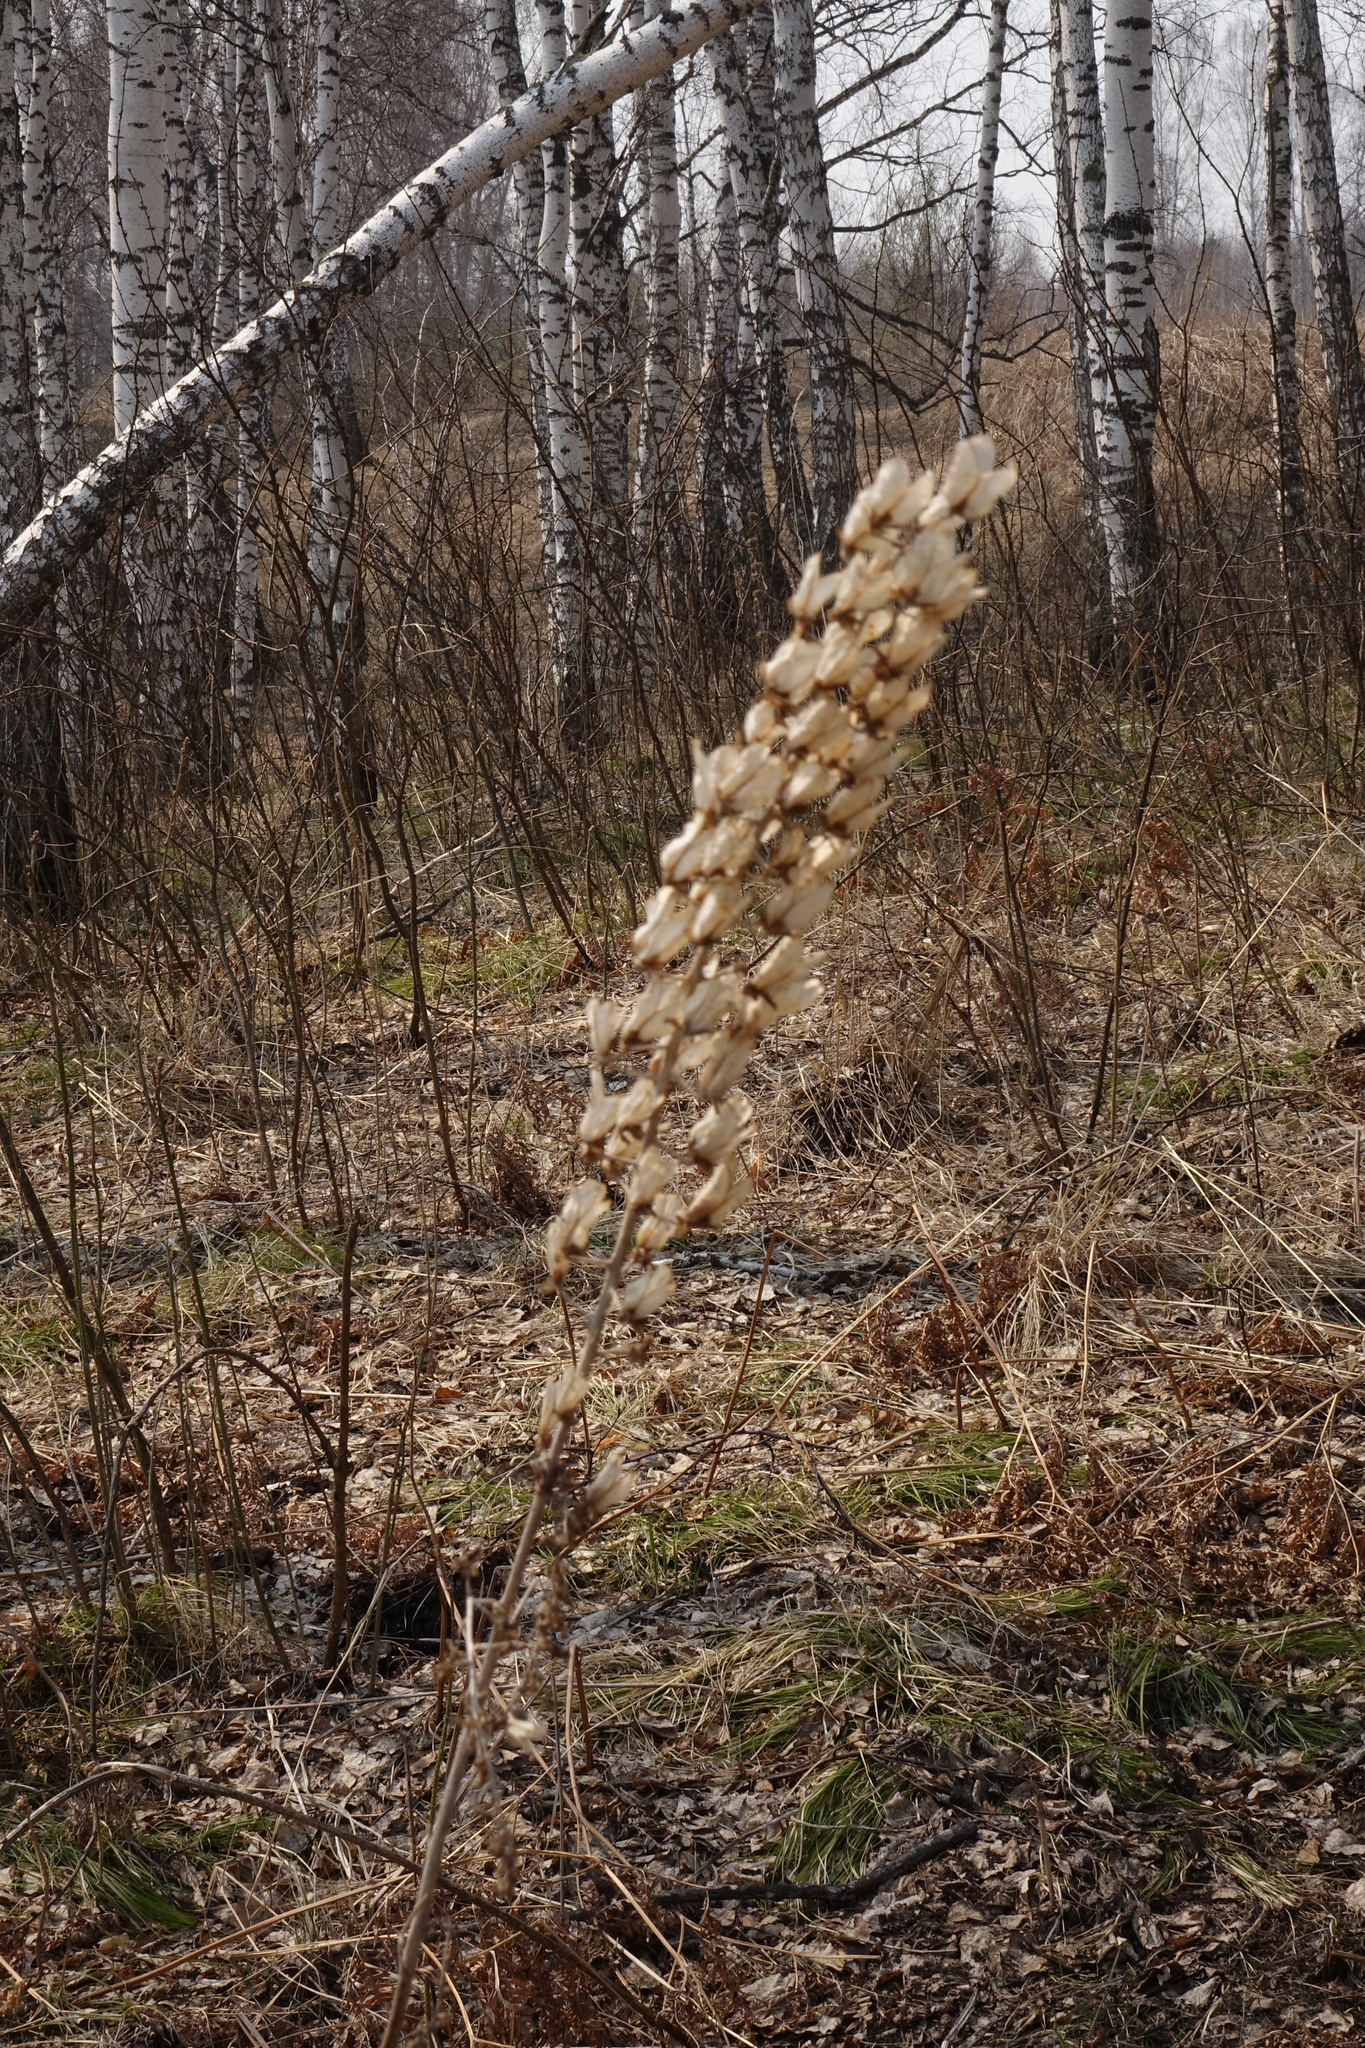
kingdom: Plantae
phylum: Tracheophyta
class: Magnoliopsida
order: Ranunculales
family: Ranunculaceae
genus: Actaea
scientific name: Actaea cimicifuga
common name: Chinese cimicifuga
